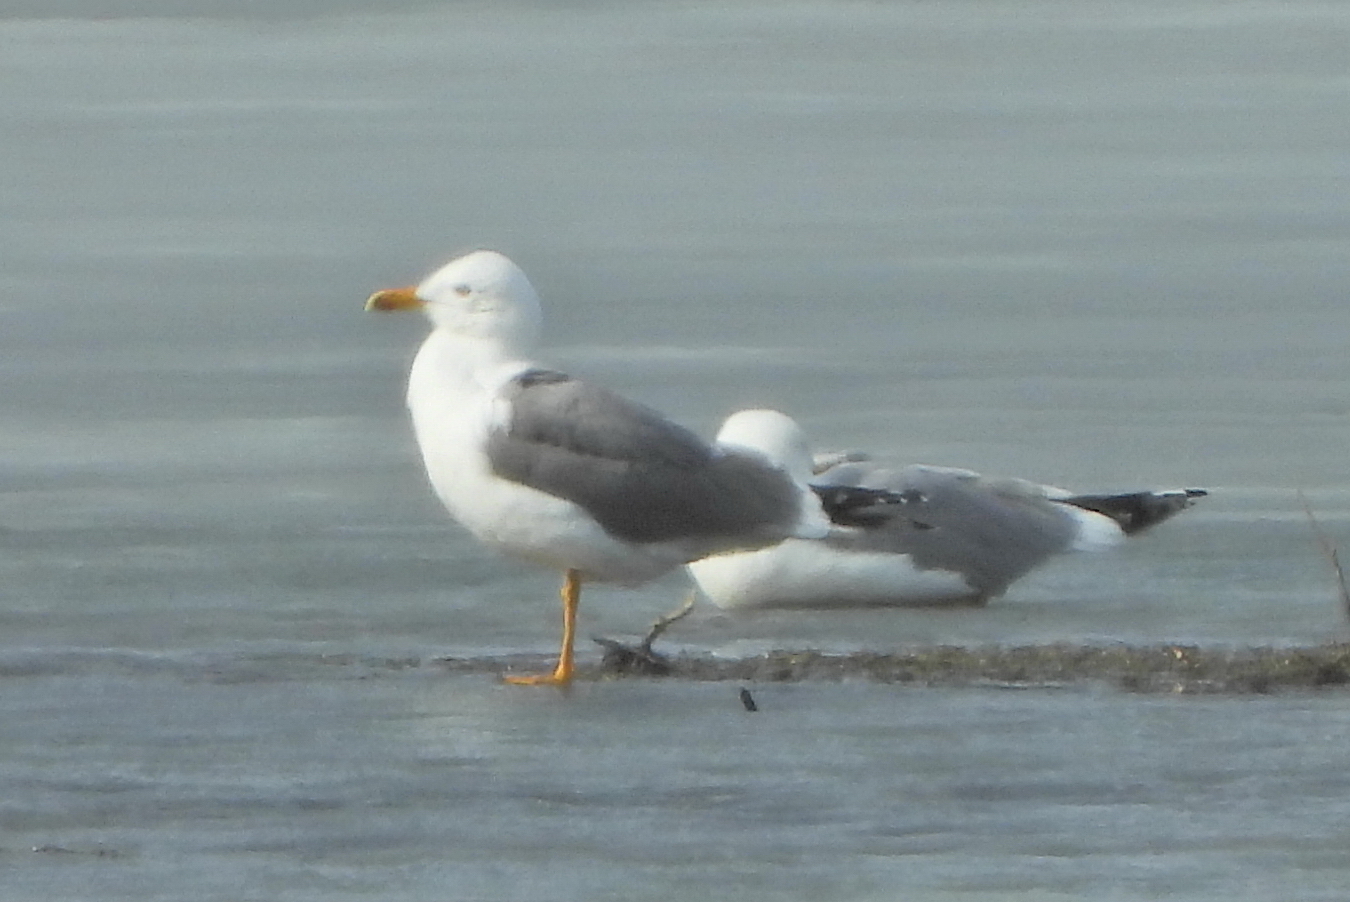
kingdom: Animalia
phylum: Chordata
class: Aves
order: Charadriiformes
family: Laridae
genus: Larus
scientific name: Larus fuscus
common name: Lesser black-backed gull
